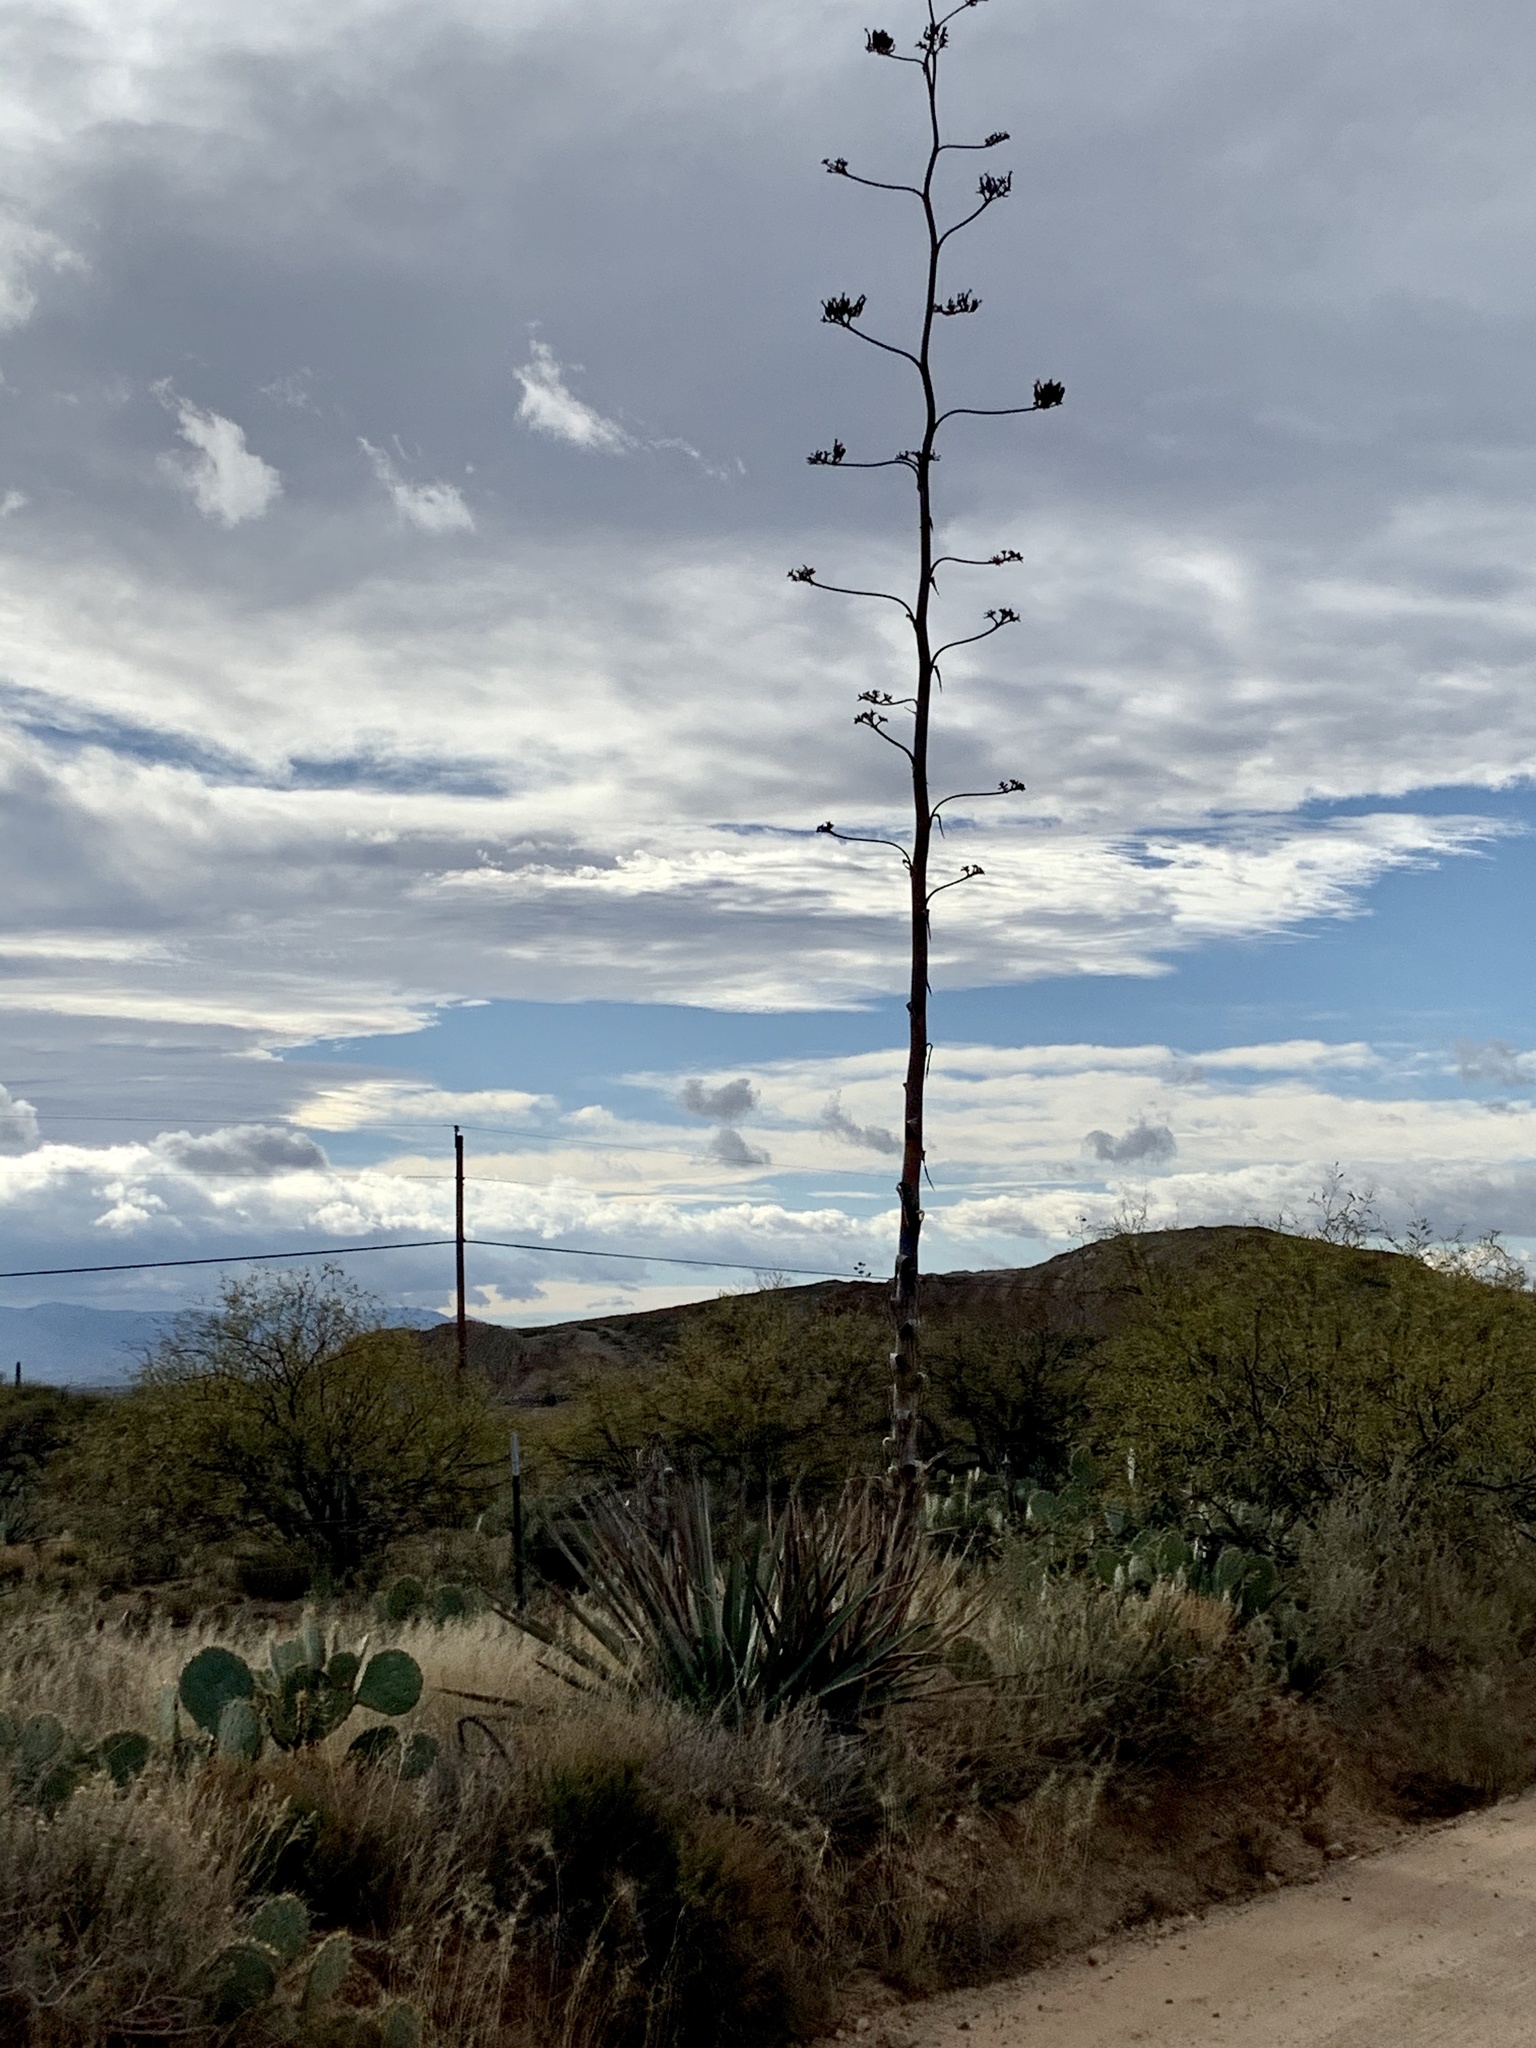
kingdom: Plantae
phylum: Tracheophyta
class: Liliopsida
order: Asparagales
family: Asparagaceae
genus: Agave
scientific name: Agave palmeri
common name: Palmer agave
